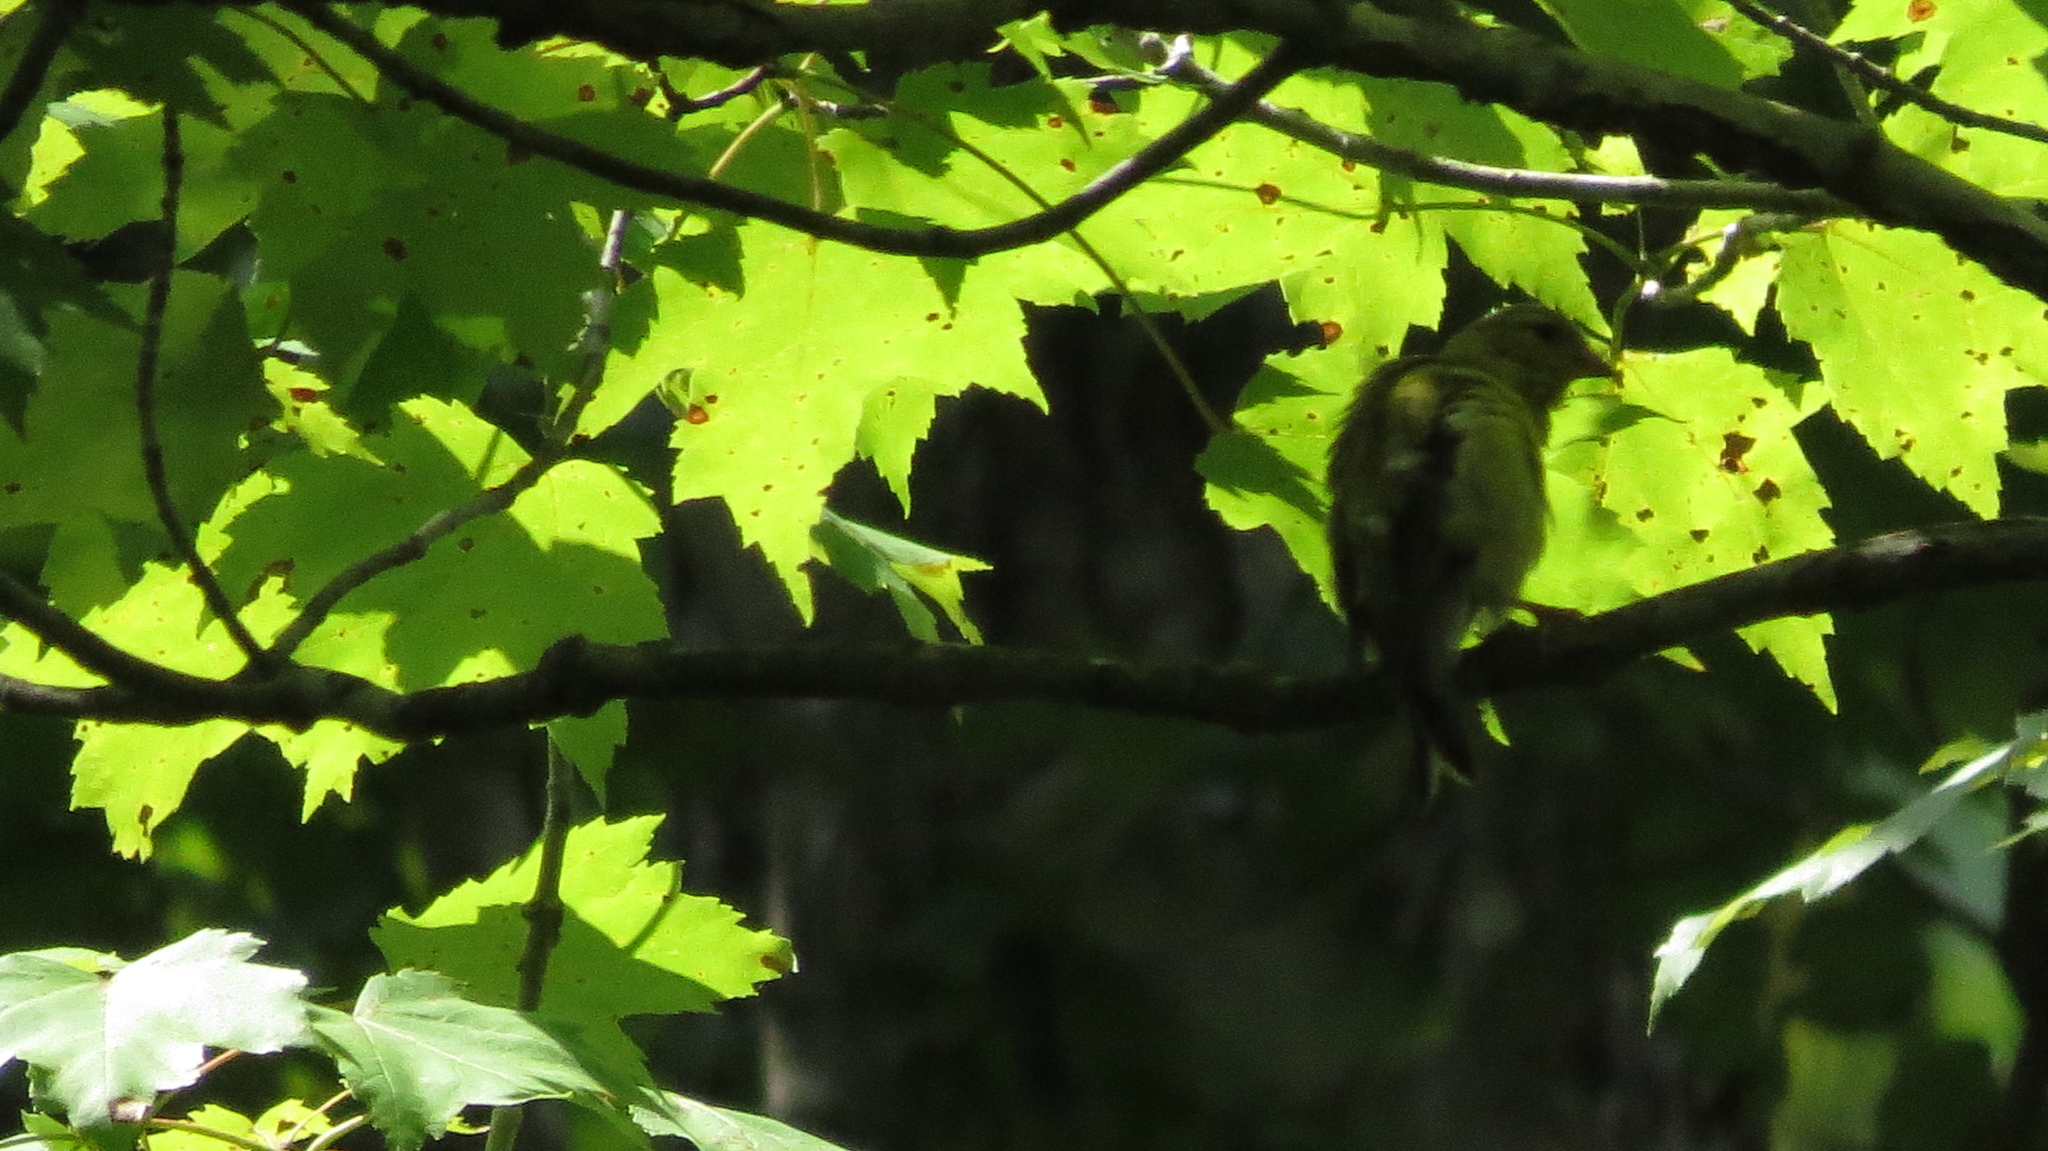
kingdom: Animalia
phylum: Chordata
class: Aves
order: Passeriformes
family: Fringillidae
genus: Spinus
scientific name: Spinus tristis
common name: American goldfinch
